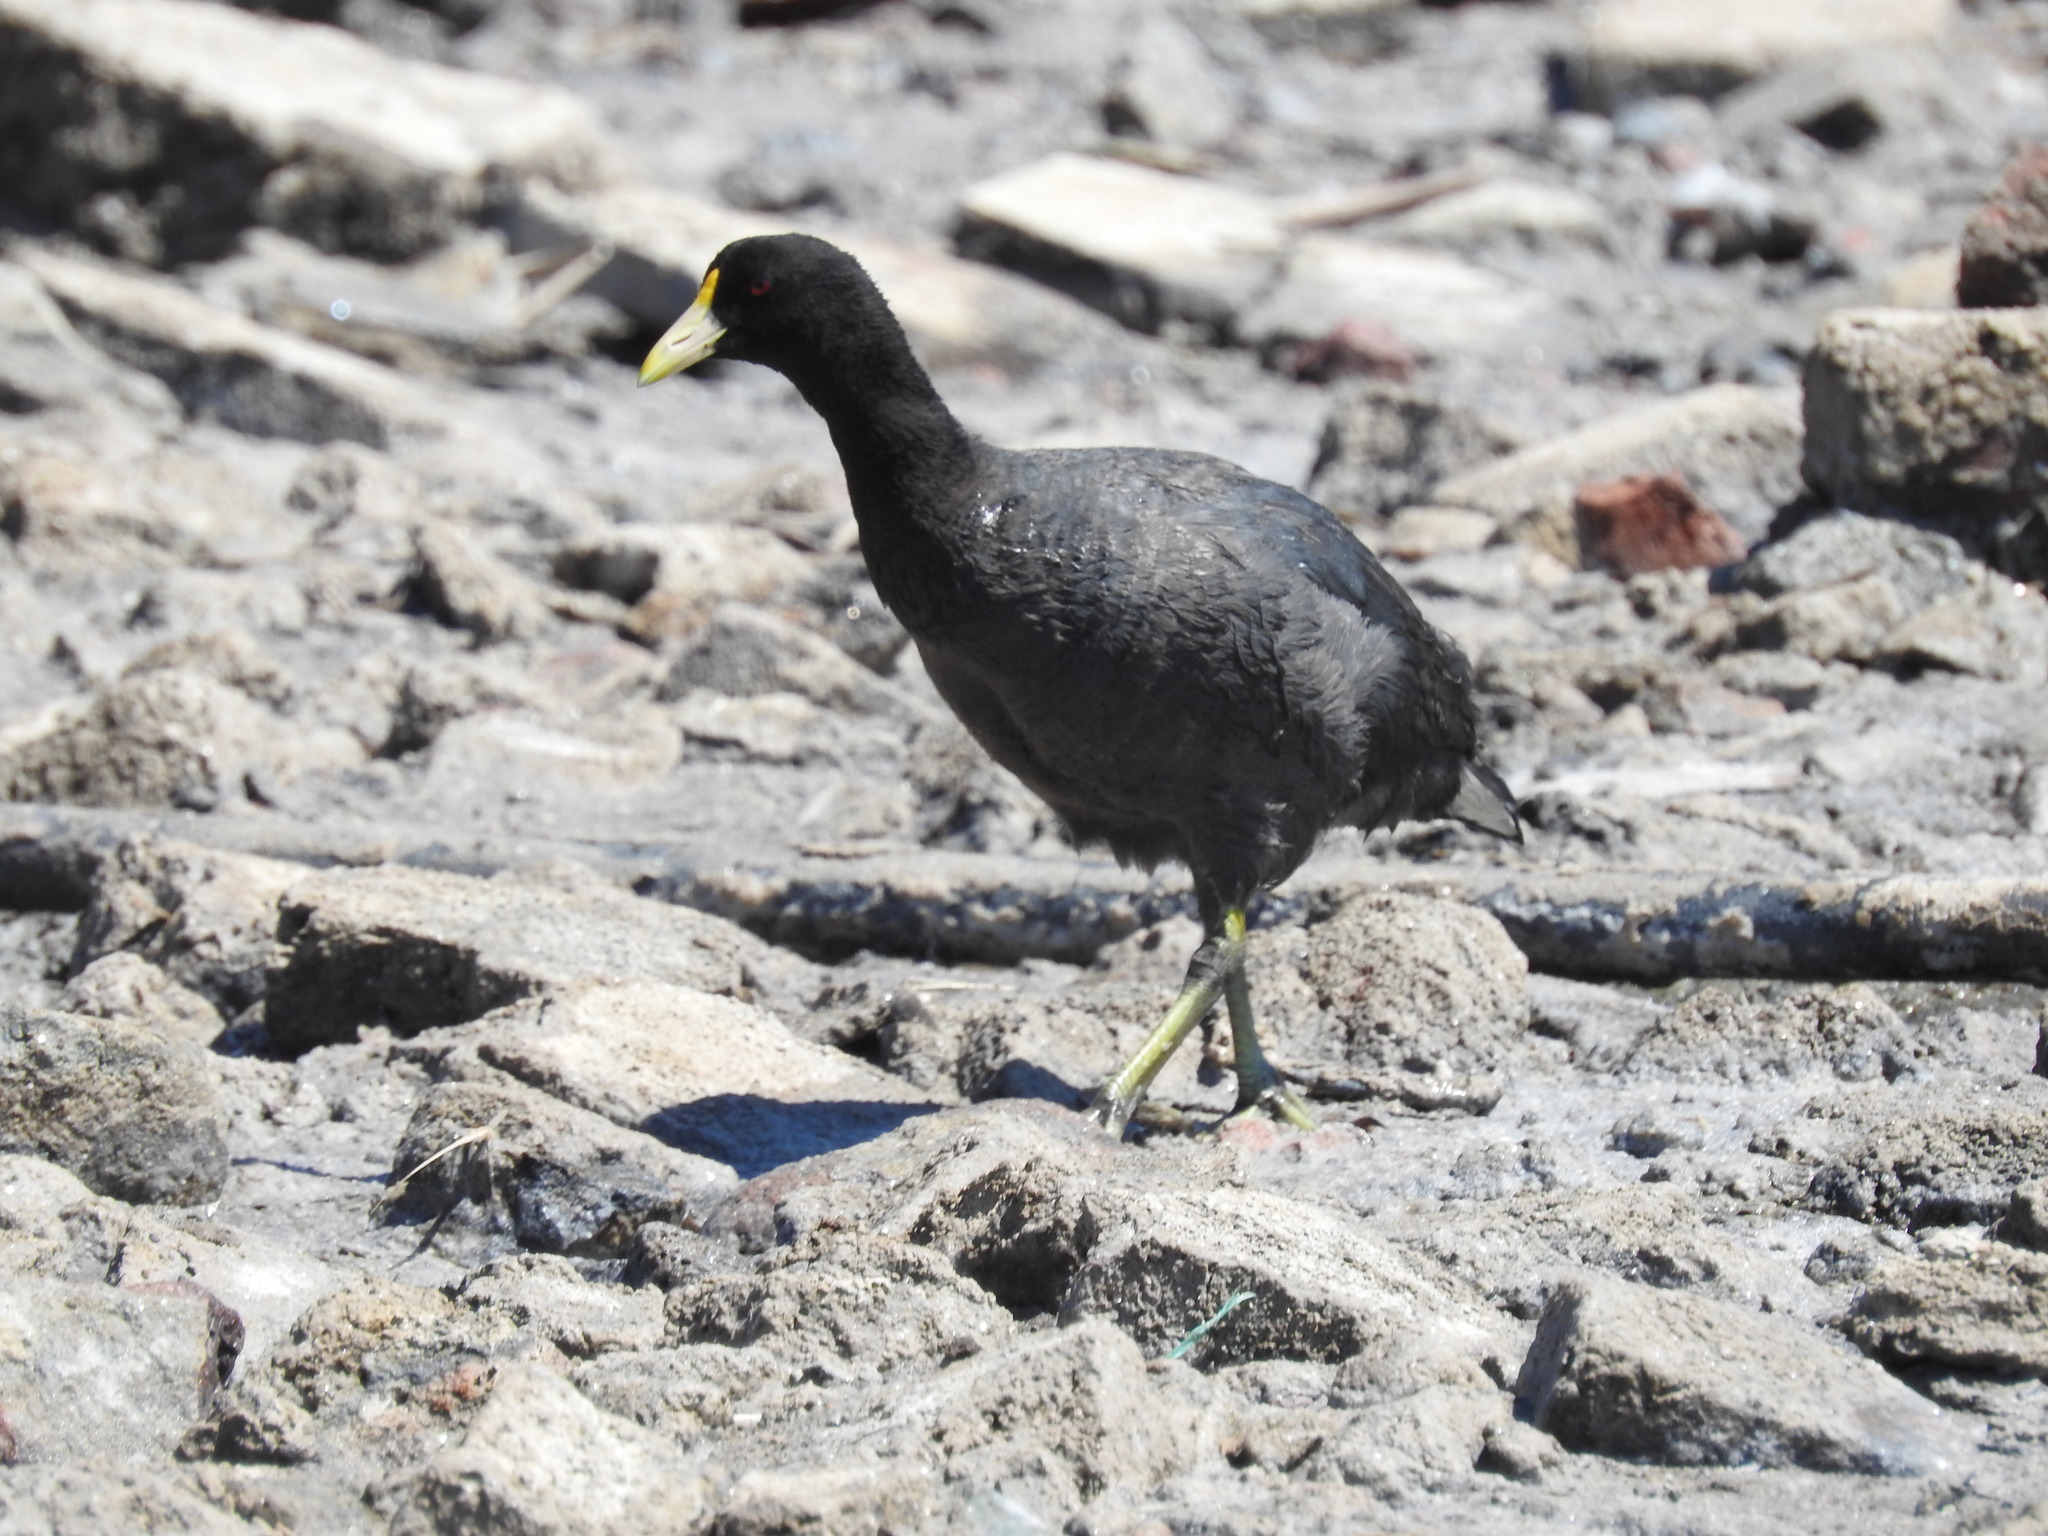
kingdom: Animalia
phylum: Chordata
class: Aves
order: Gruiformes
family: Rallidae
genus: Fulica
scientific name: Fulica leucoptera
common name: White-winged coot
